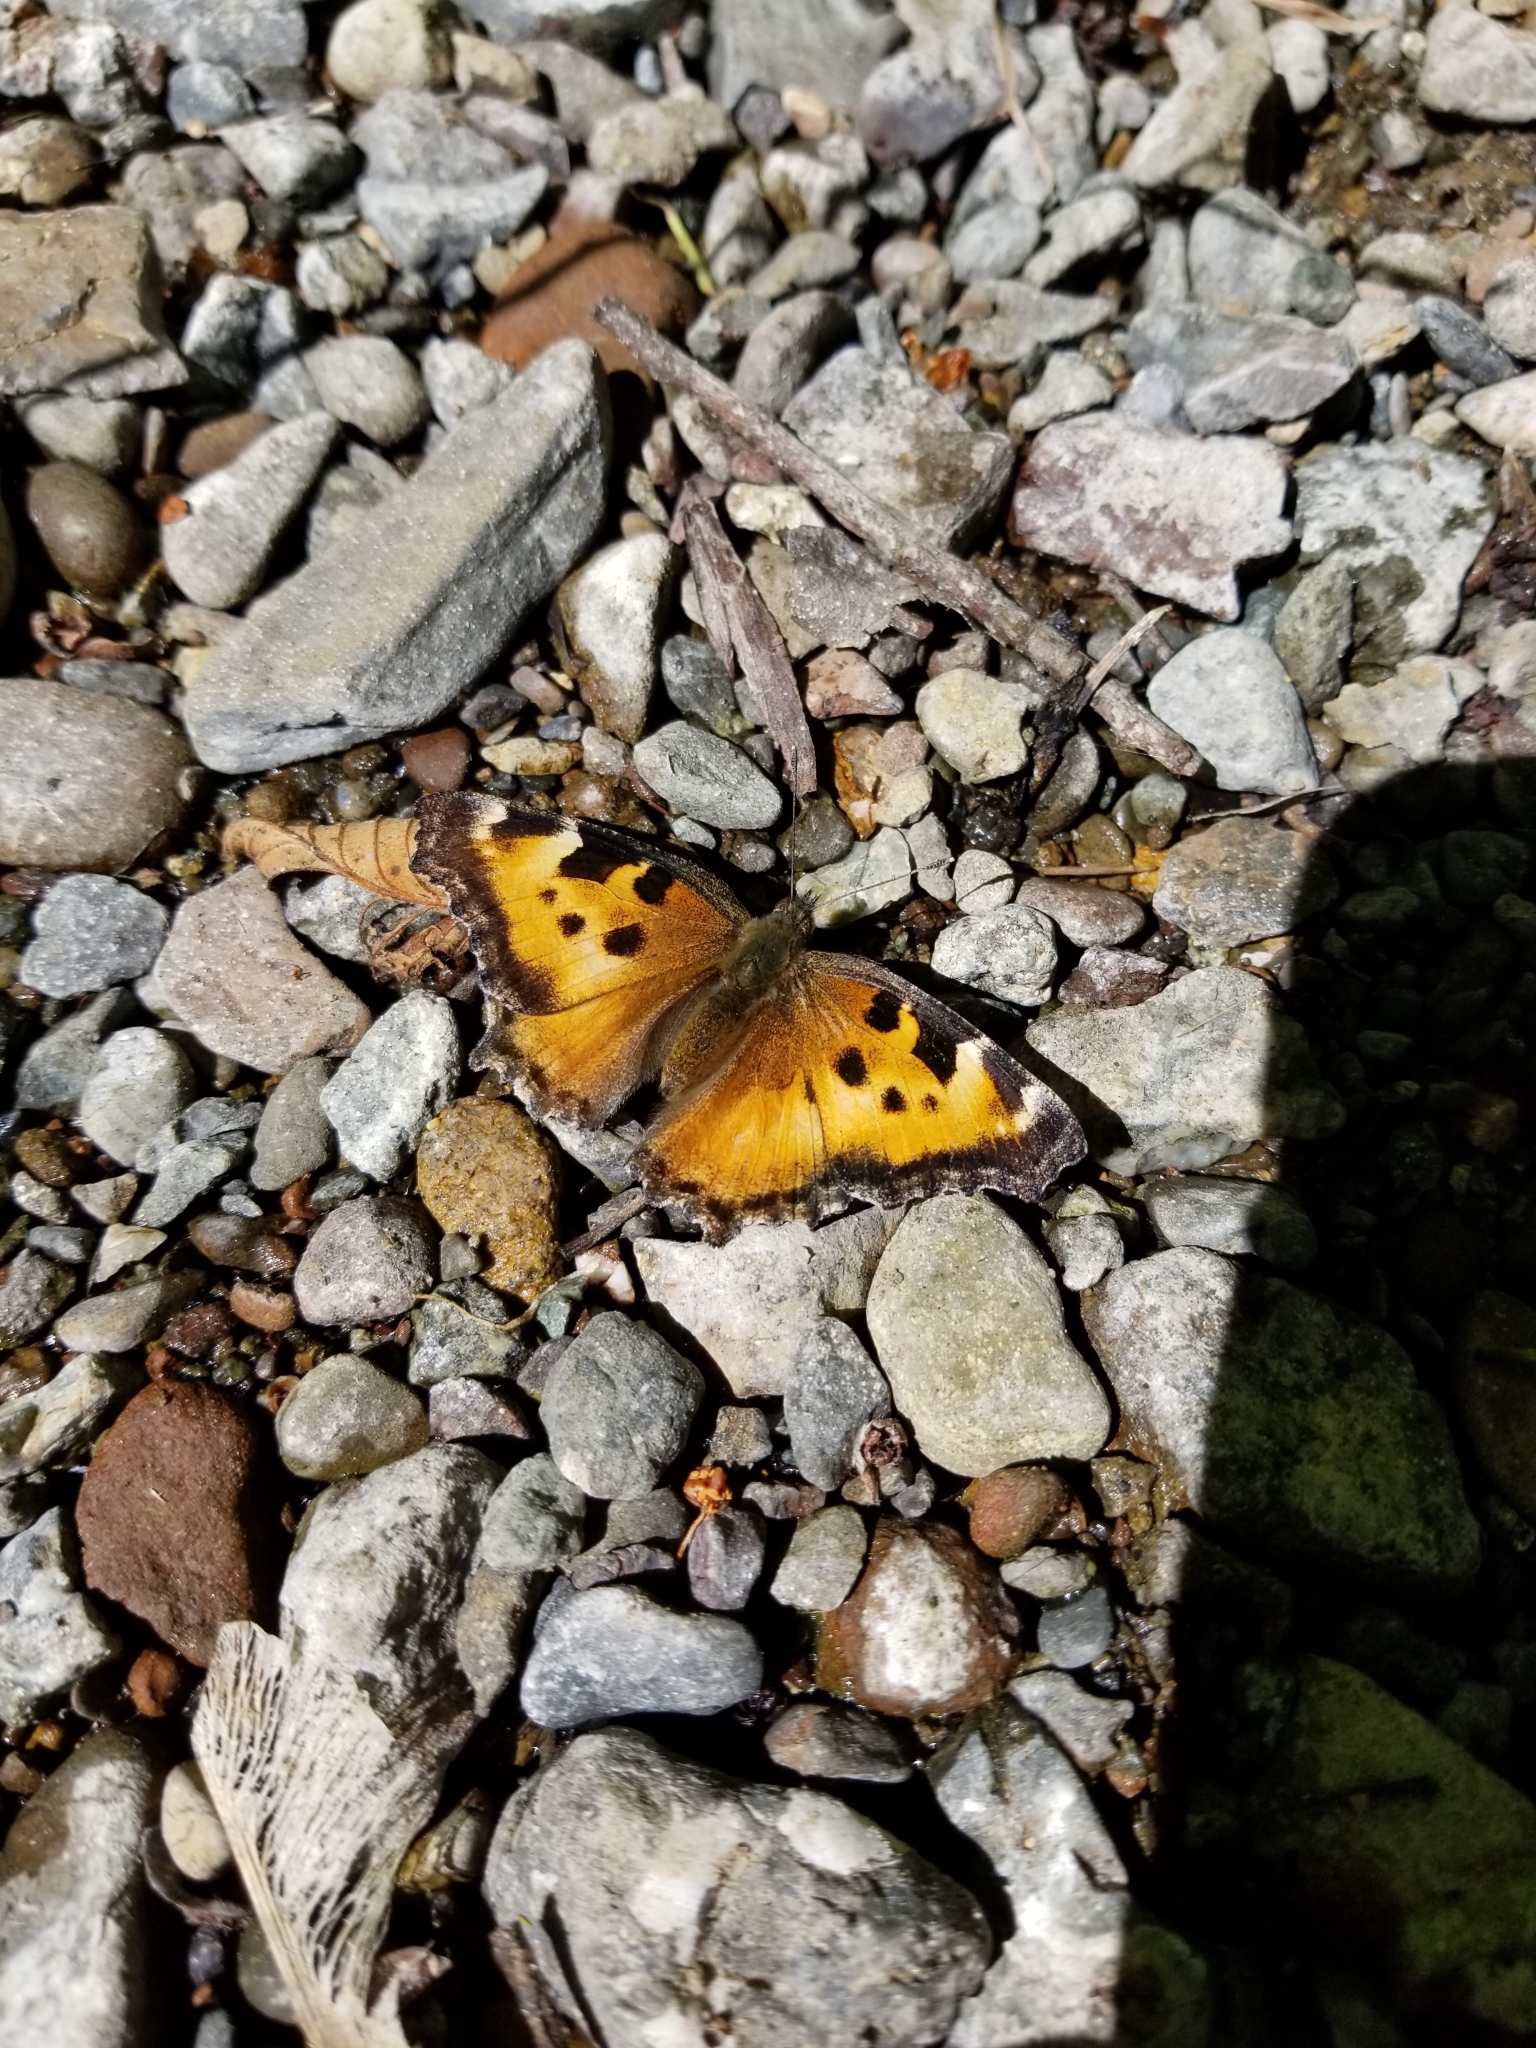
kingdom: Animalia
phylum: Arthropoda
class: Insecta
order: Lepidoptera
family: Nymphalidae
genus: Nymphalis
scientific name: Nymphalis californica
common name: California tortoiseshell
